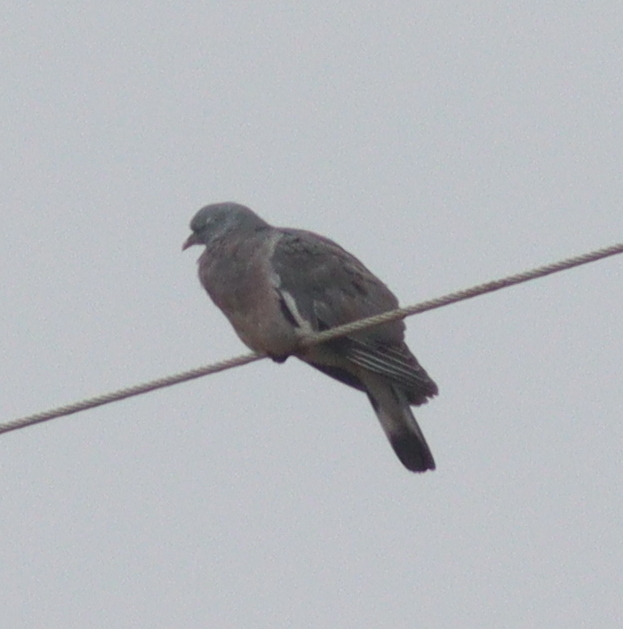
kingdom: Animalia
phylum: Chordata
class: Aves
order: Columbiformes
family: Columbidae
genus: Columba
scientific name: Columba palumbus
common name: Common wood pigeon
